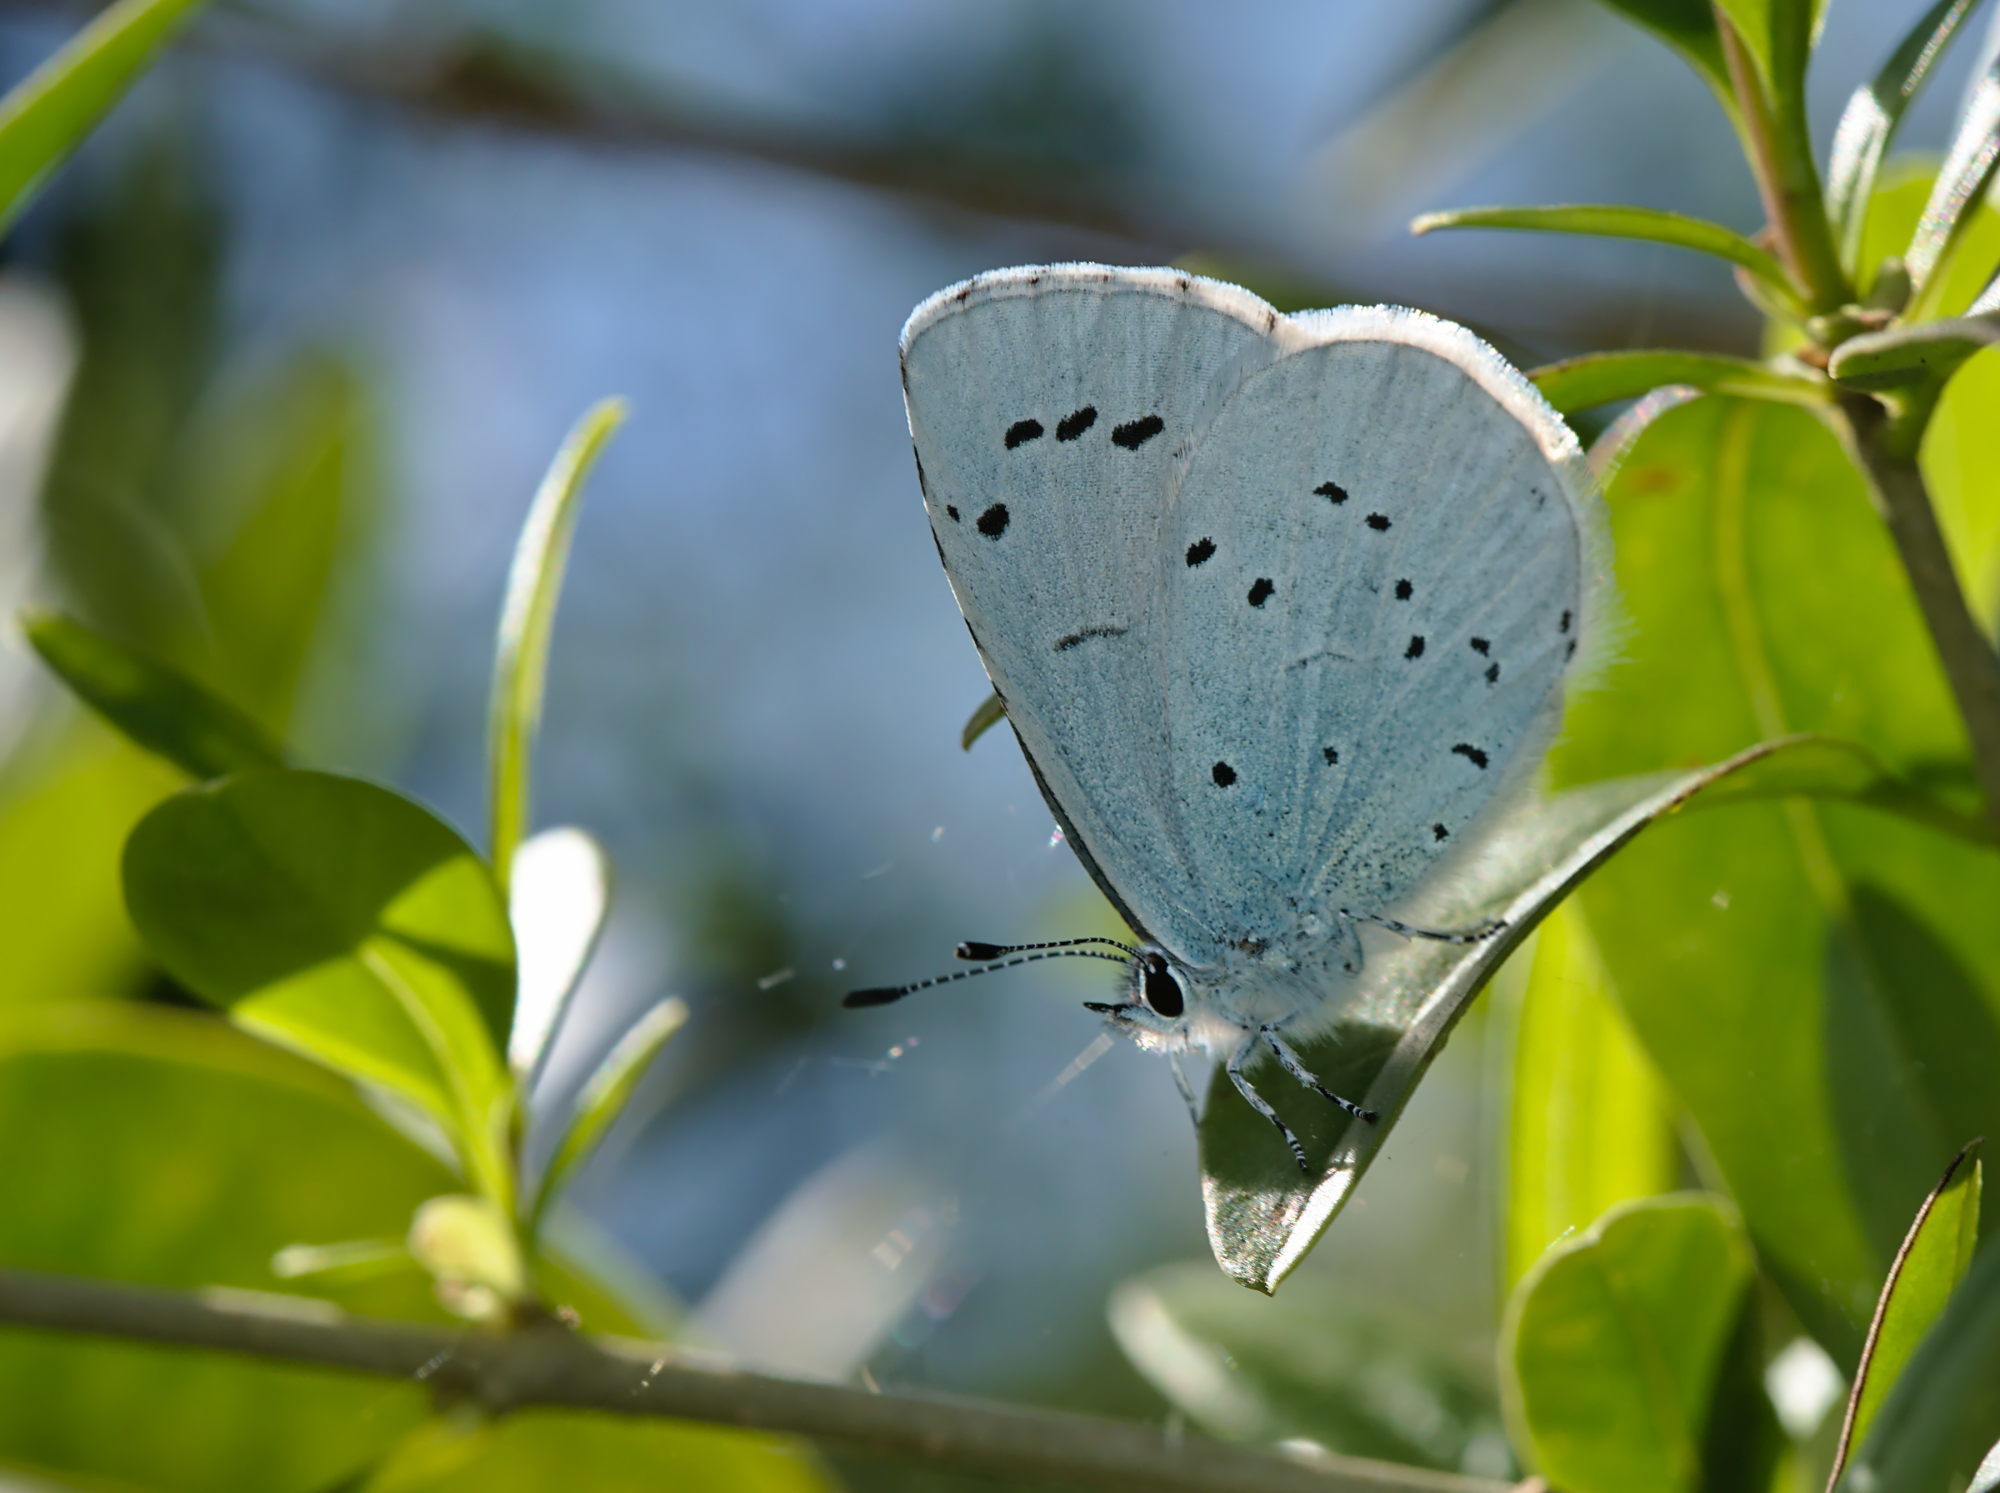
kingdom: Animalia
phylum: Arthropoda
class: Insecta
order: Lepidoptera
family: Lycaenidae
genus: Celastrina
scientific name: Celastrina argiolus
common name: Holly blue
